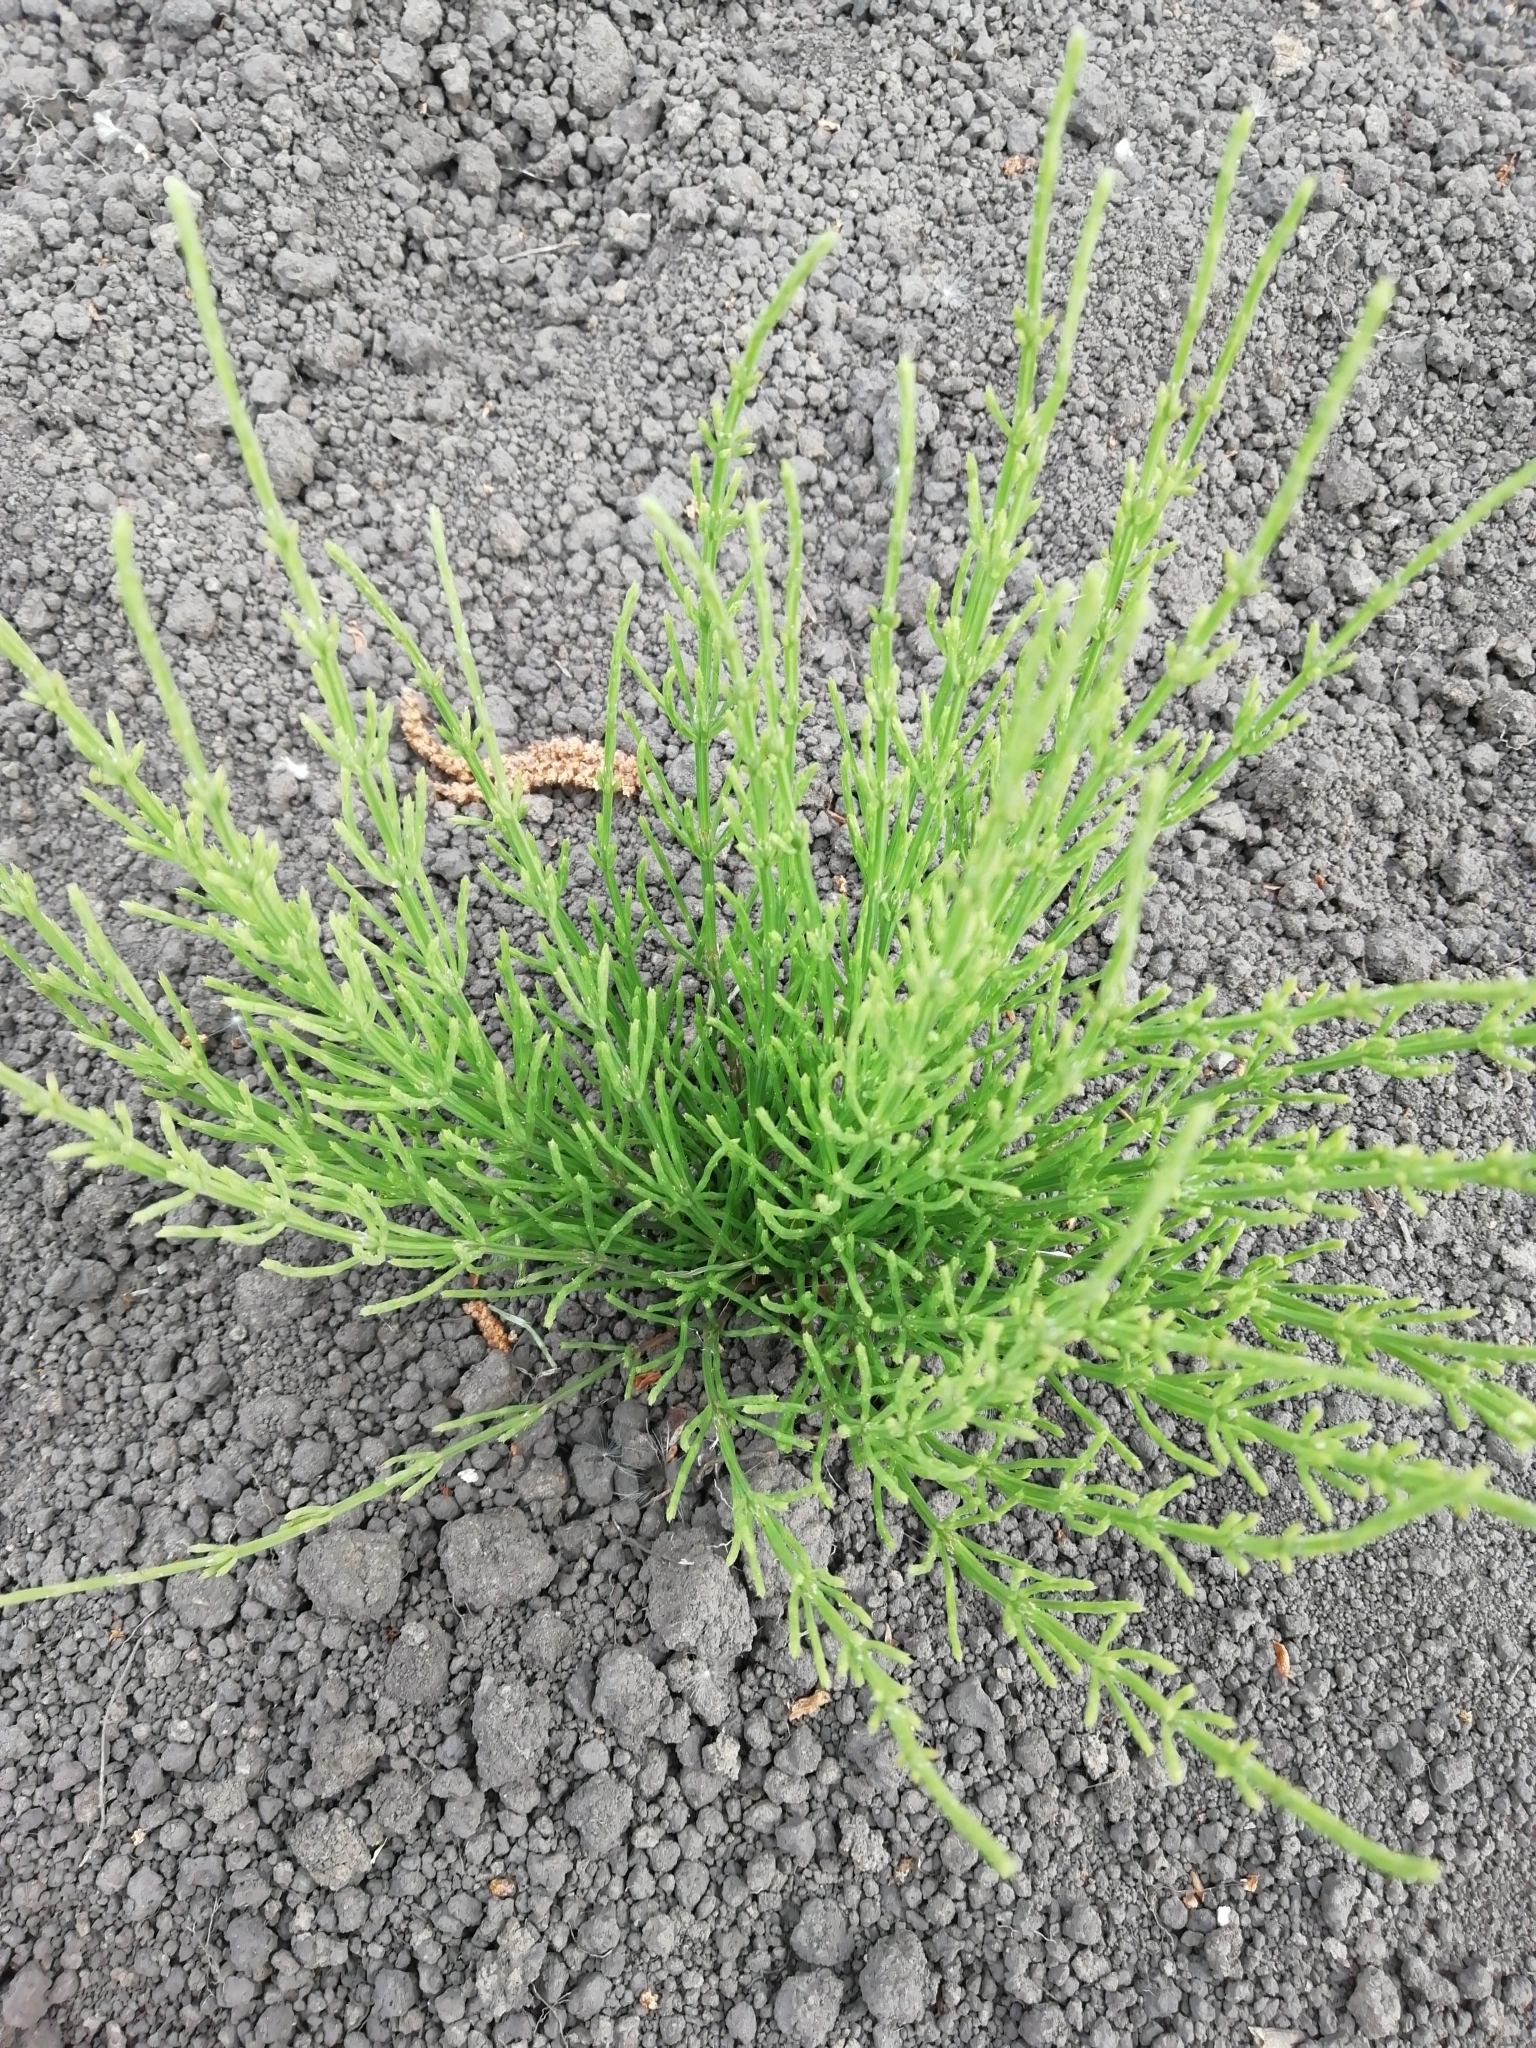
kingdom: Plantae
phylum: Tracheophyta
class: Polypodiopsida
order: Equisetales
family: Equisetaceae
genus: Equisetum
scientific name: Equisetum arvense
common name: Field horsetail
